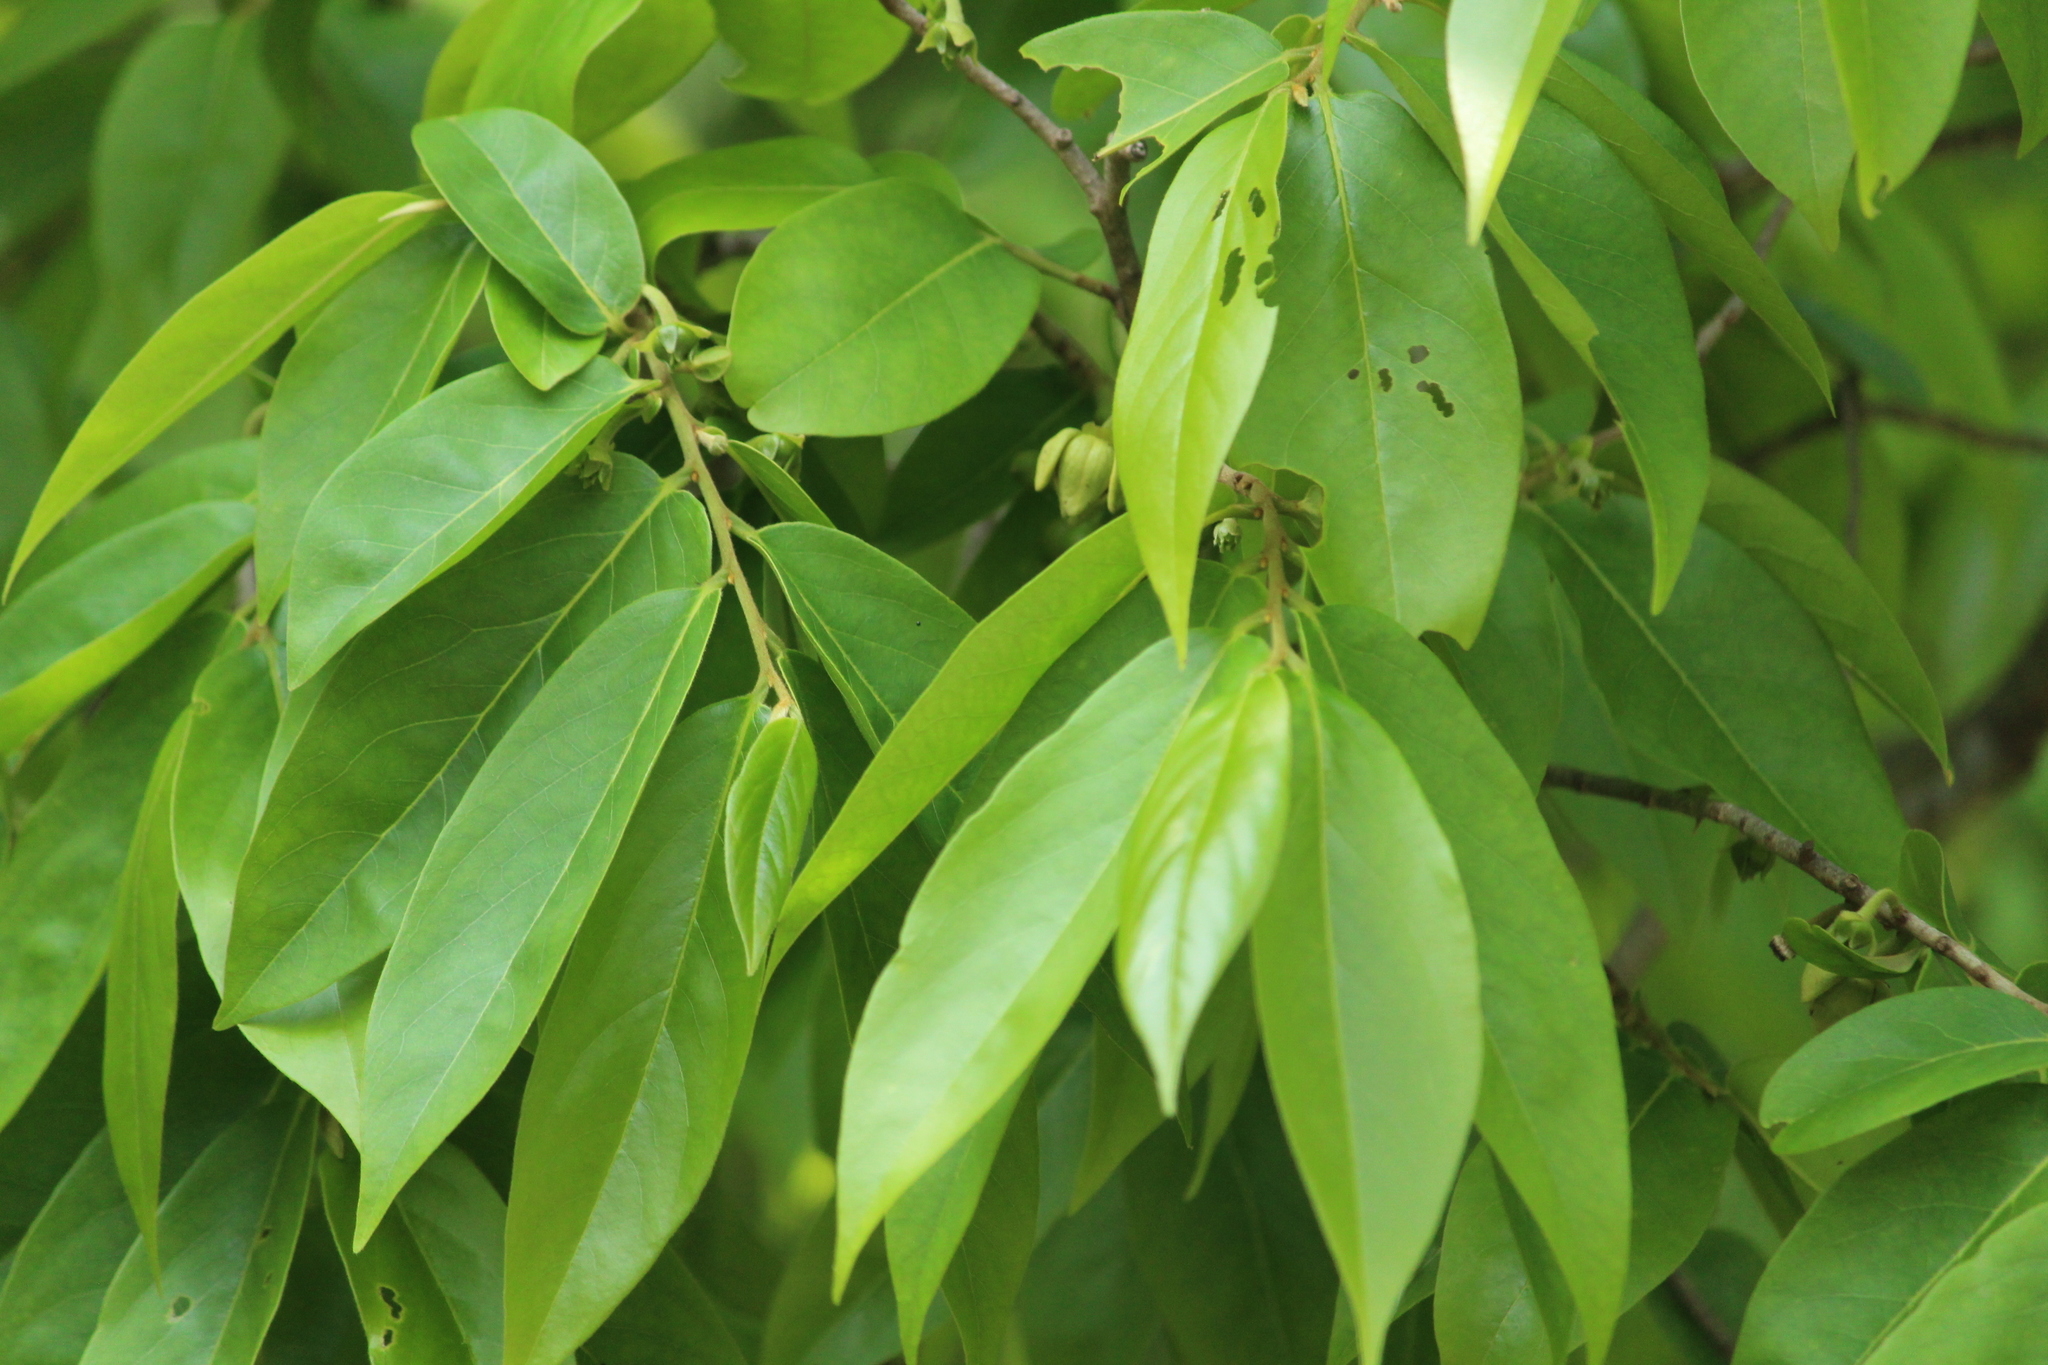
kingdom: Plantae
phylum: Tracheophyta
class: Magnoliopsida
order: Magnoliales
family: Annonaceae
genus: Hubera
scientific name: Hubera cerasoides
